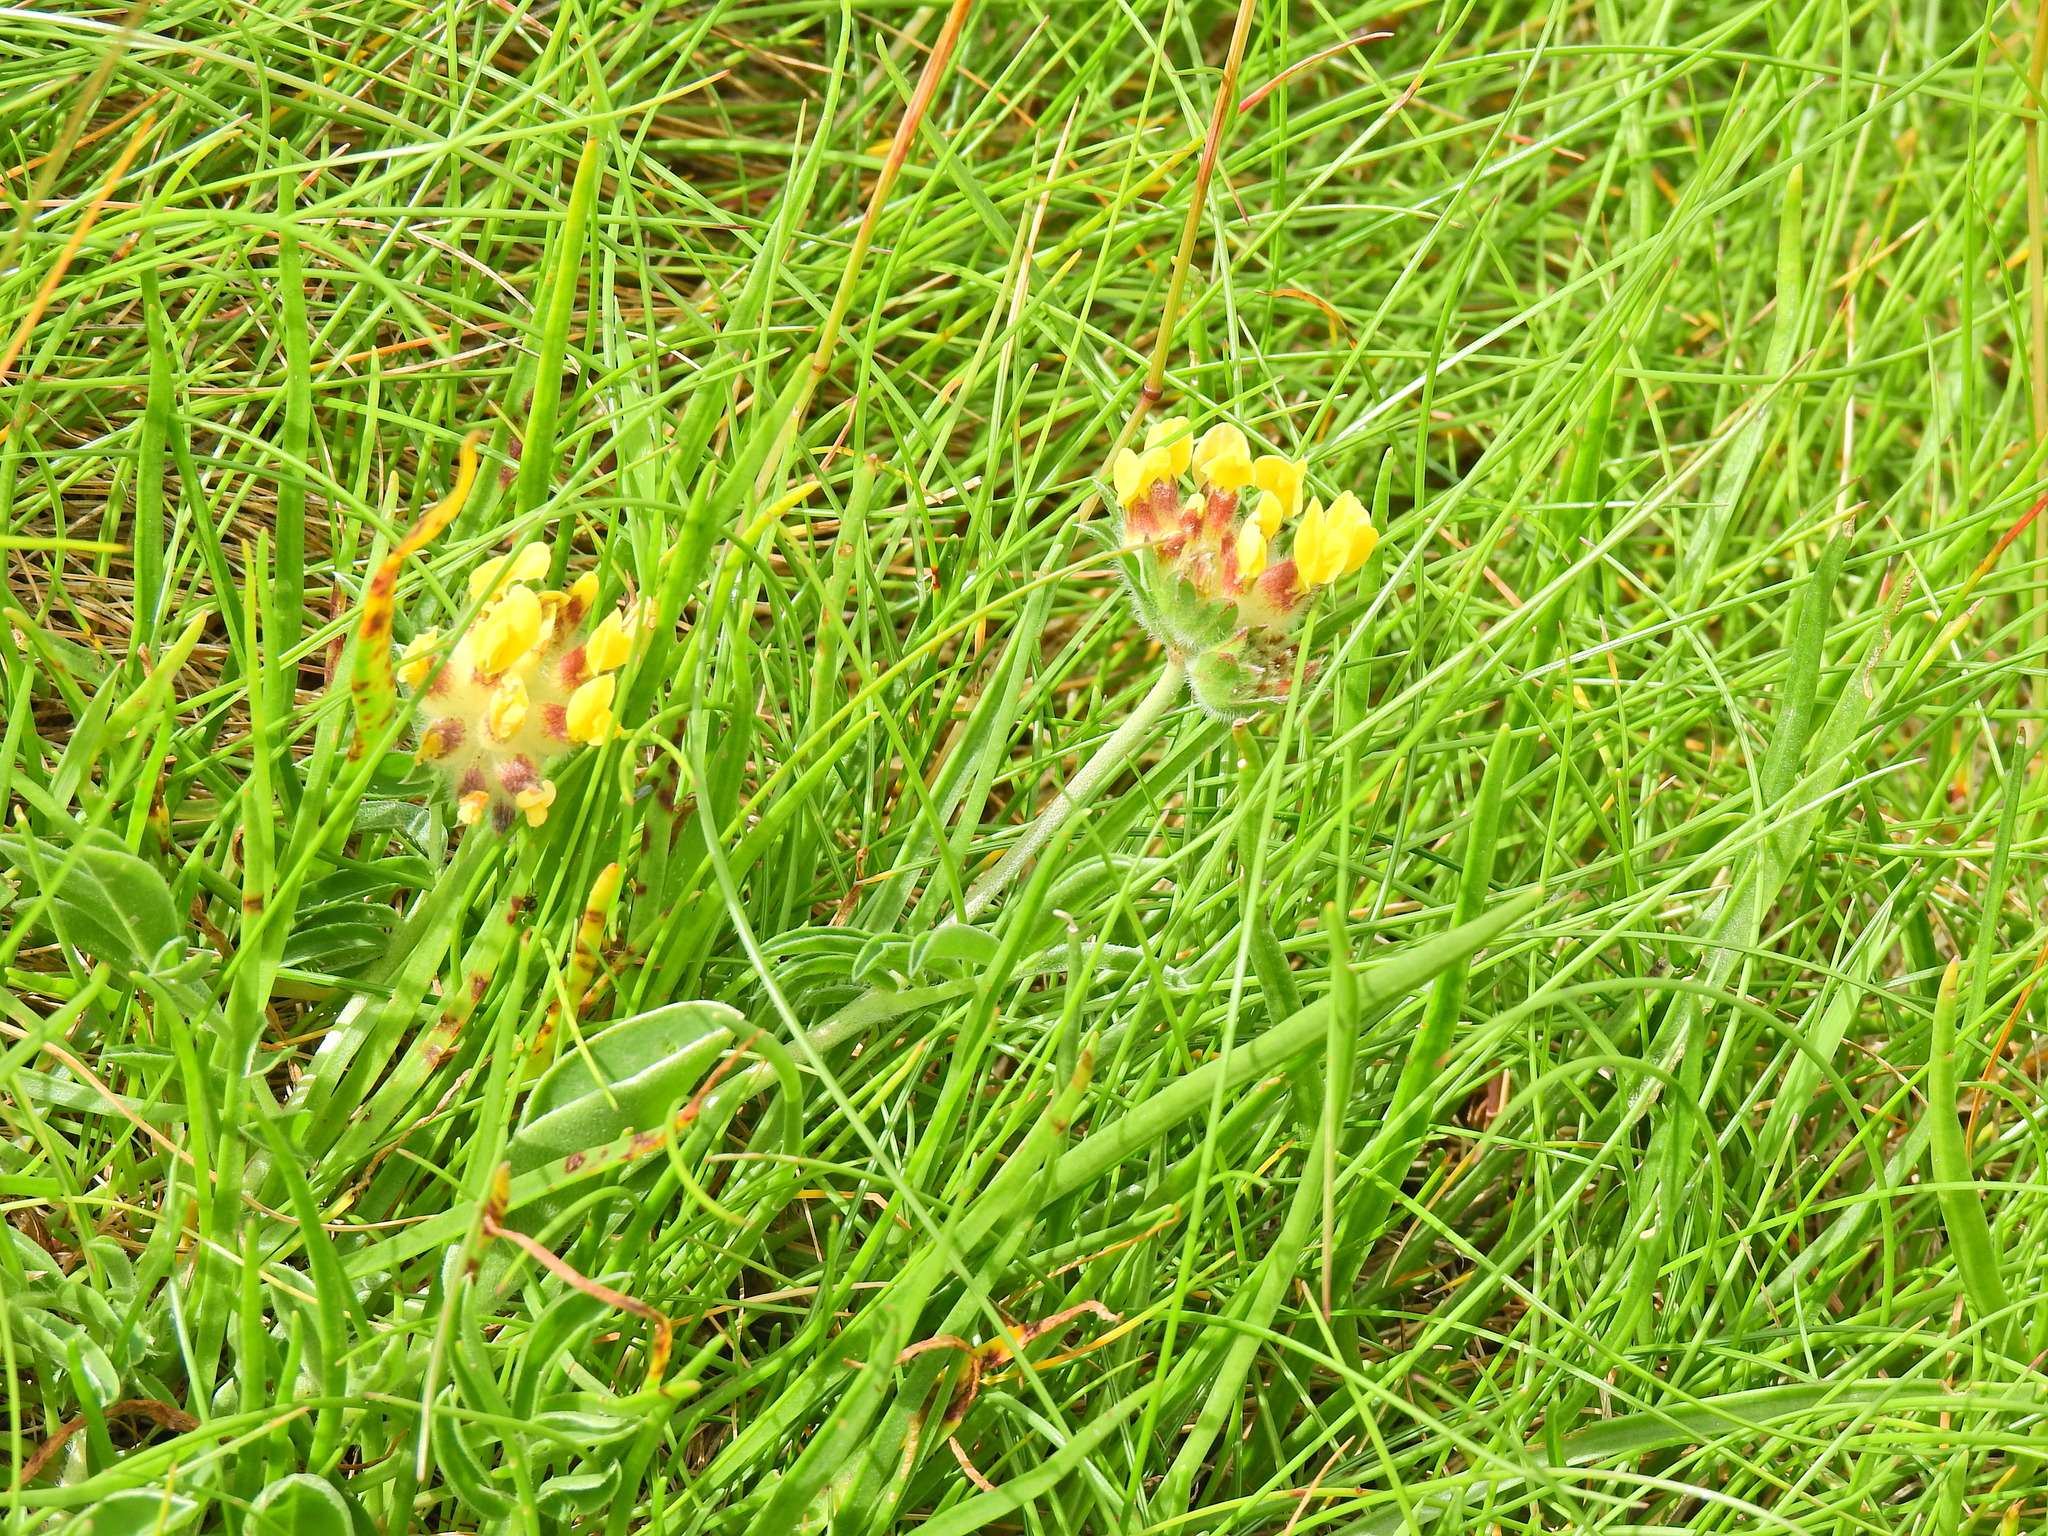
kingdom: Plantae
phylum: Tracheophyta
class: Magnoliopsida
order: Fabales
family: Fabaceae
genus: Anthyllis
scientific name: Anthyllis vulneraria
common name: Kidney vetch
